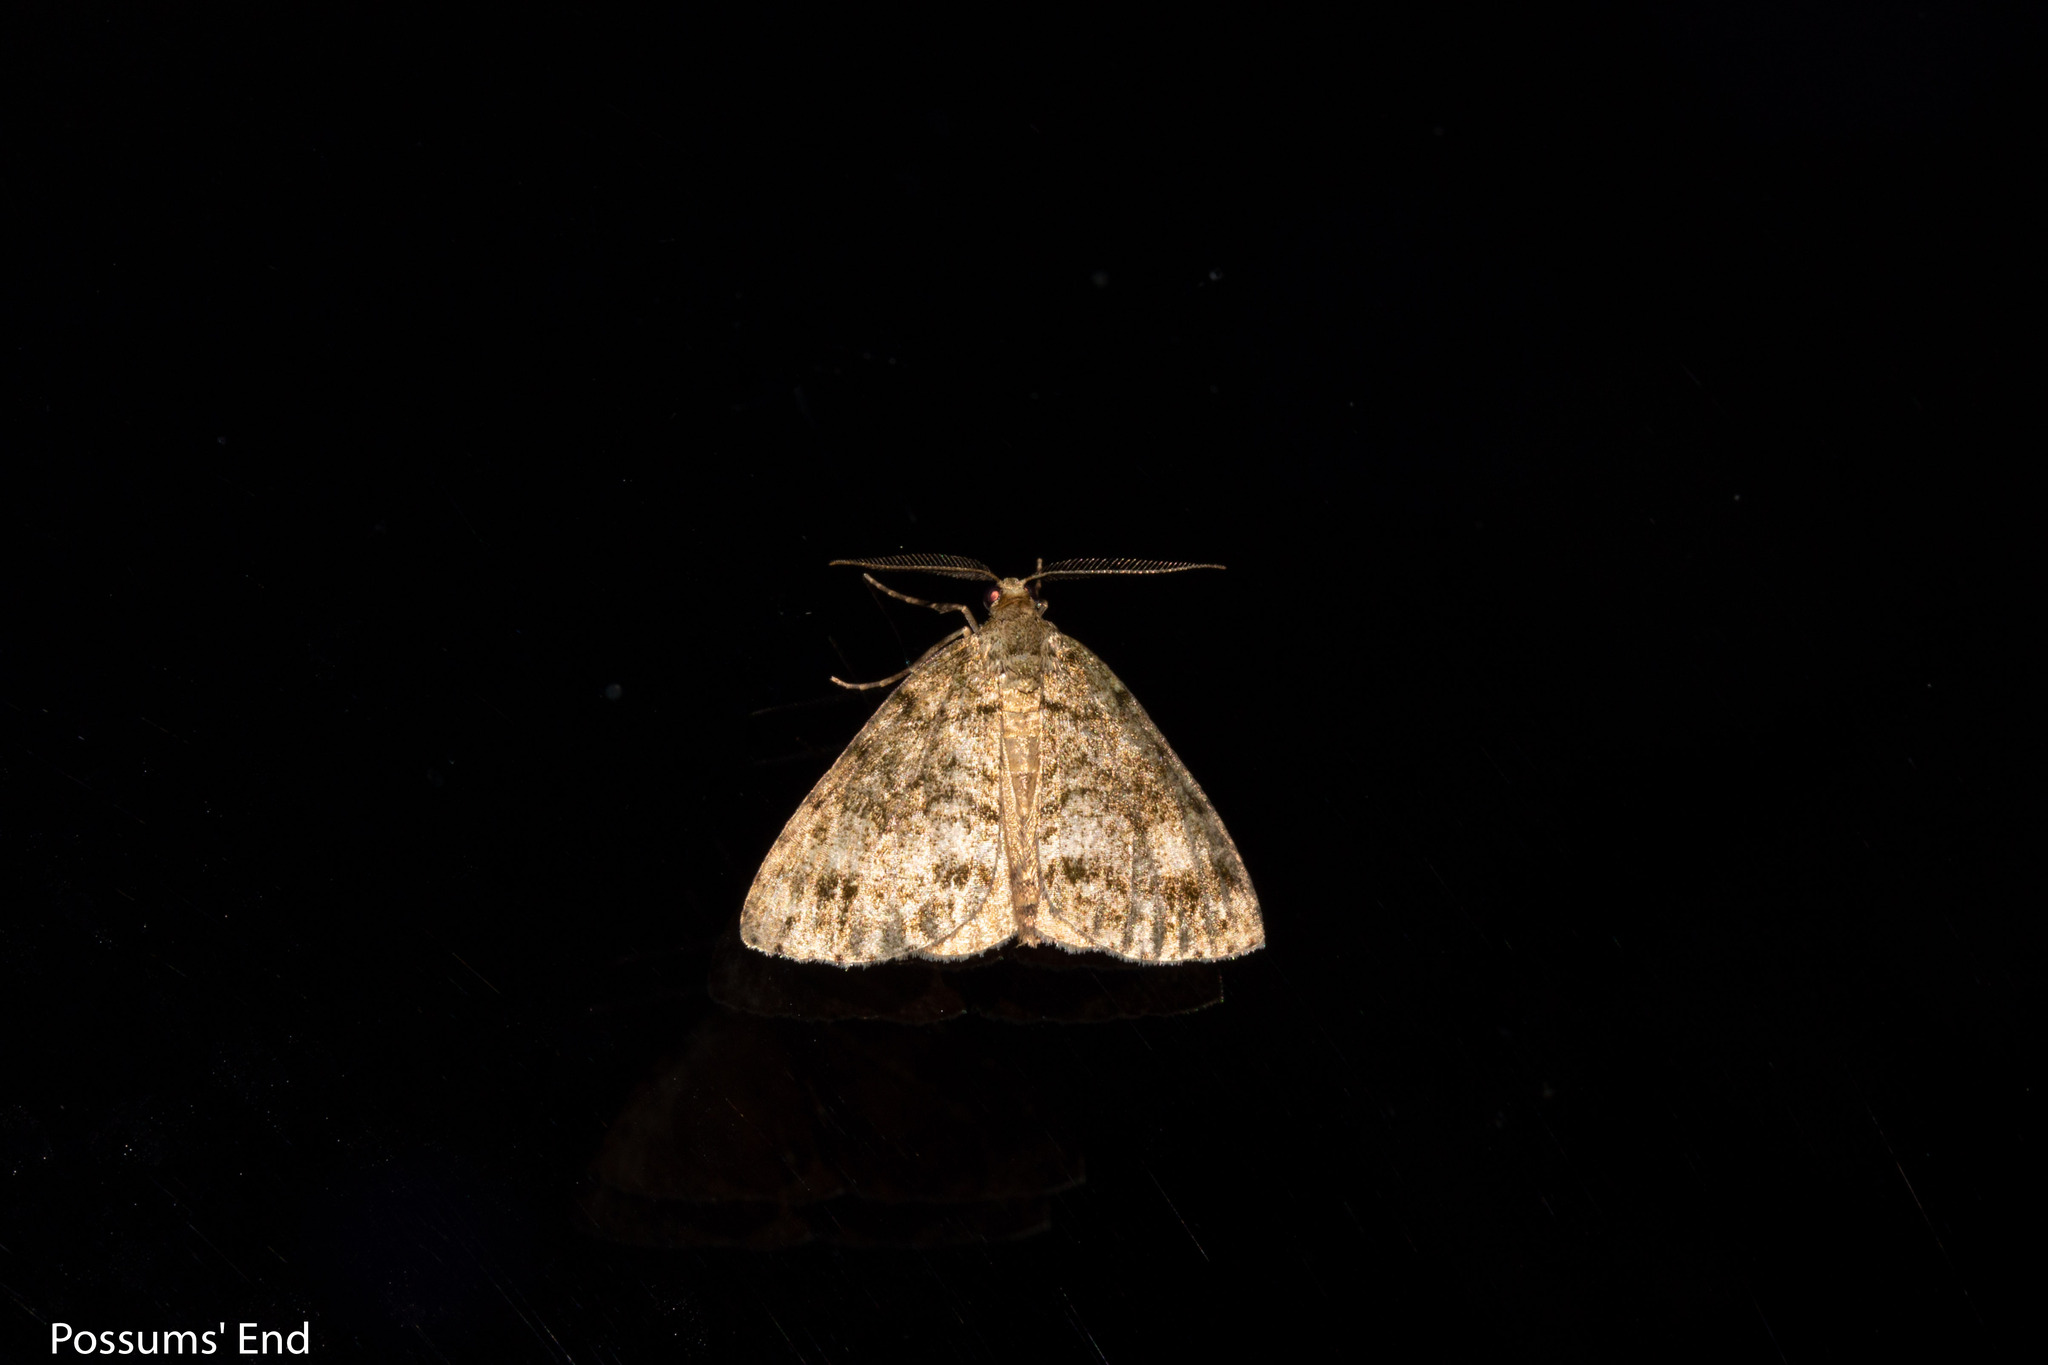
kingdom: Animalia
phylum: Arthropoda
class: Insecta
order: Lepidoptera
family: Geometridae
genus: Pseudocoremia
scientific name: Pseudocoremia indistincta
